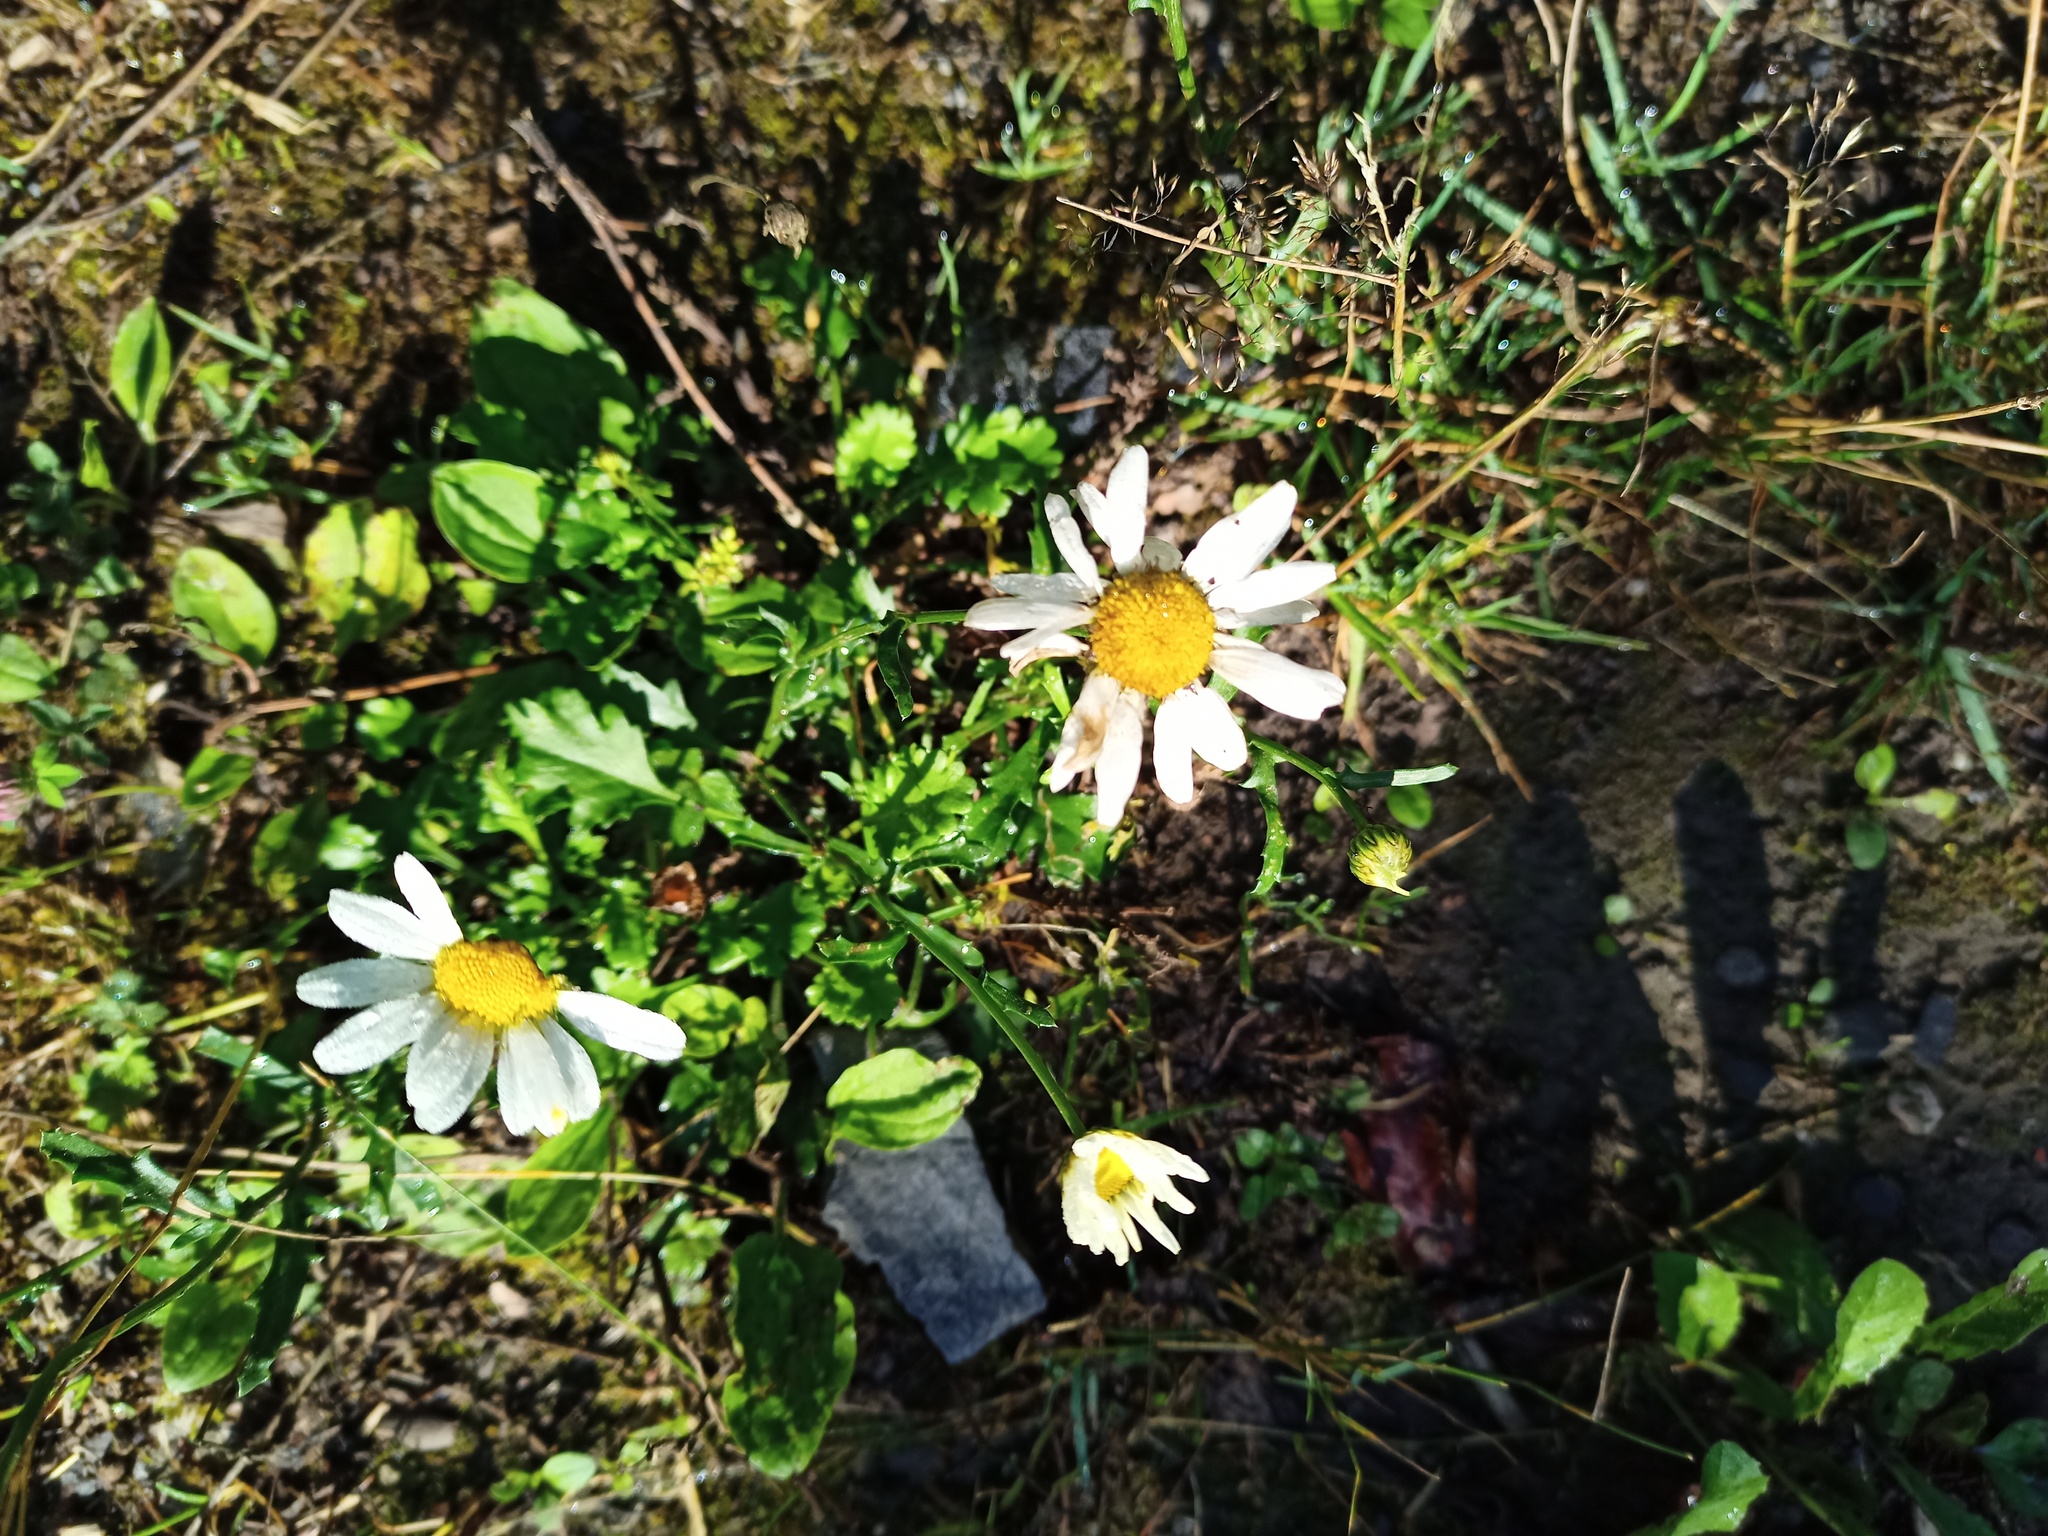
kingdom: Plantae
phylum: Tracheophyta
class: Magnoliopsida
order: Asterales
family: Asteraceae
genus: Leucanthemum
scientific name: Leucanthemum vulgare
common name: Oxeye daisy
